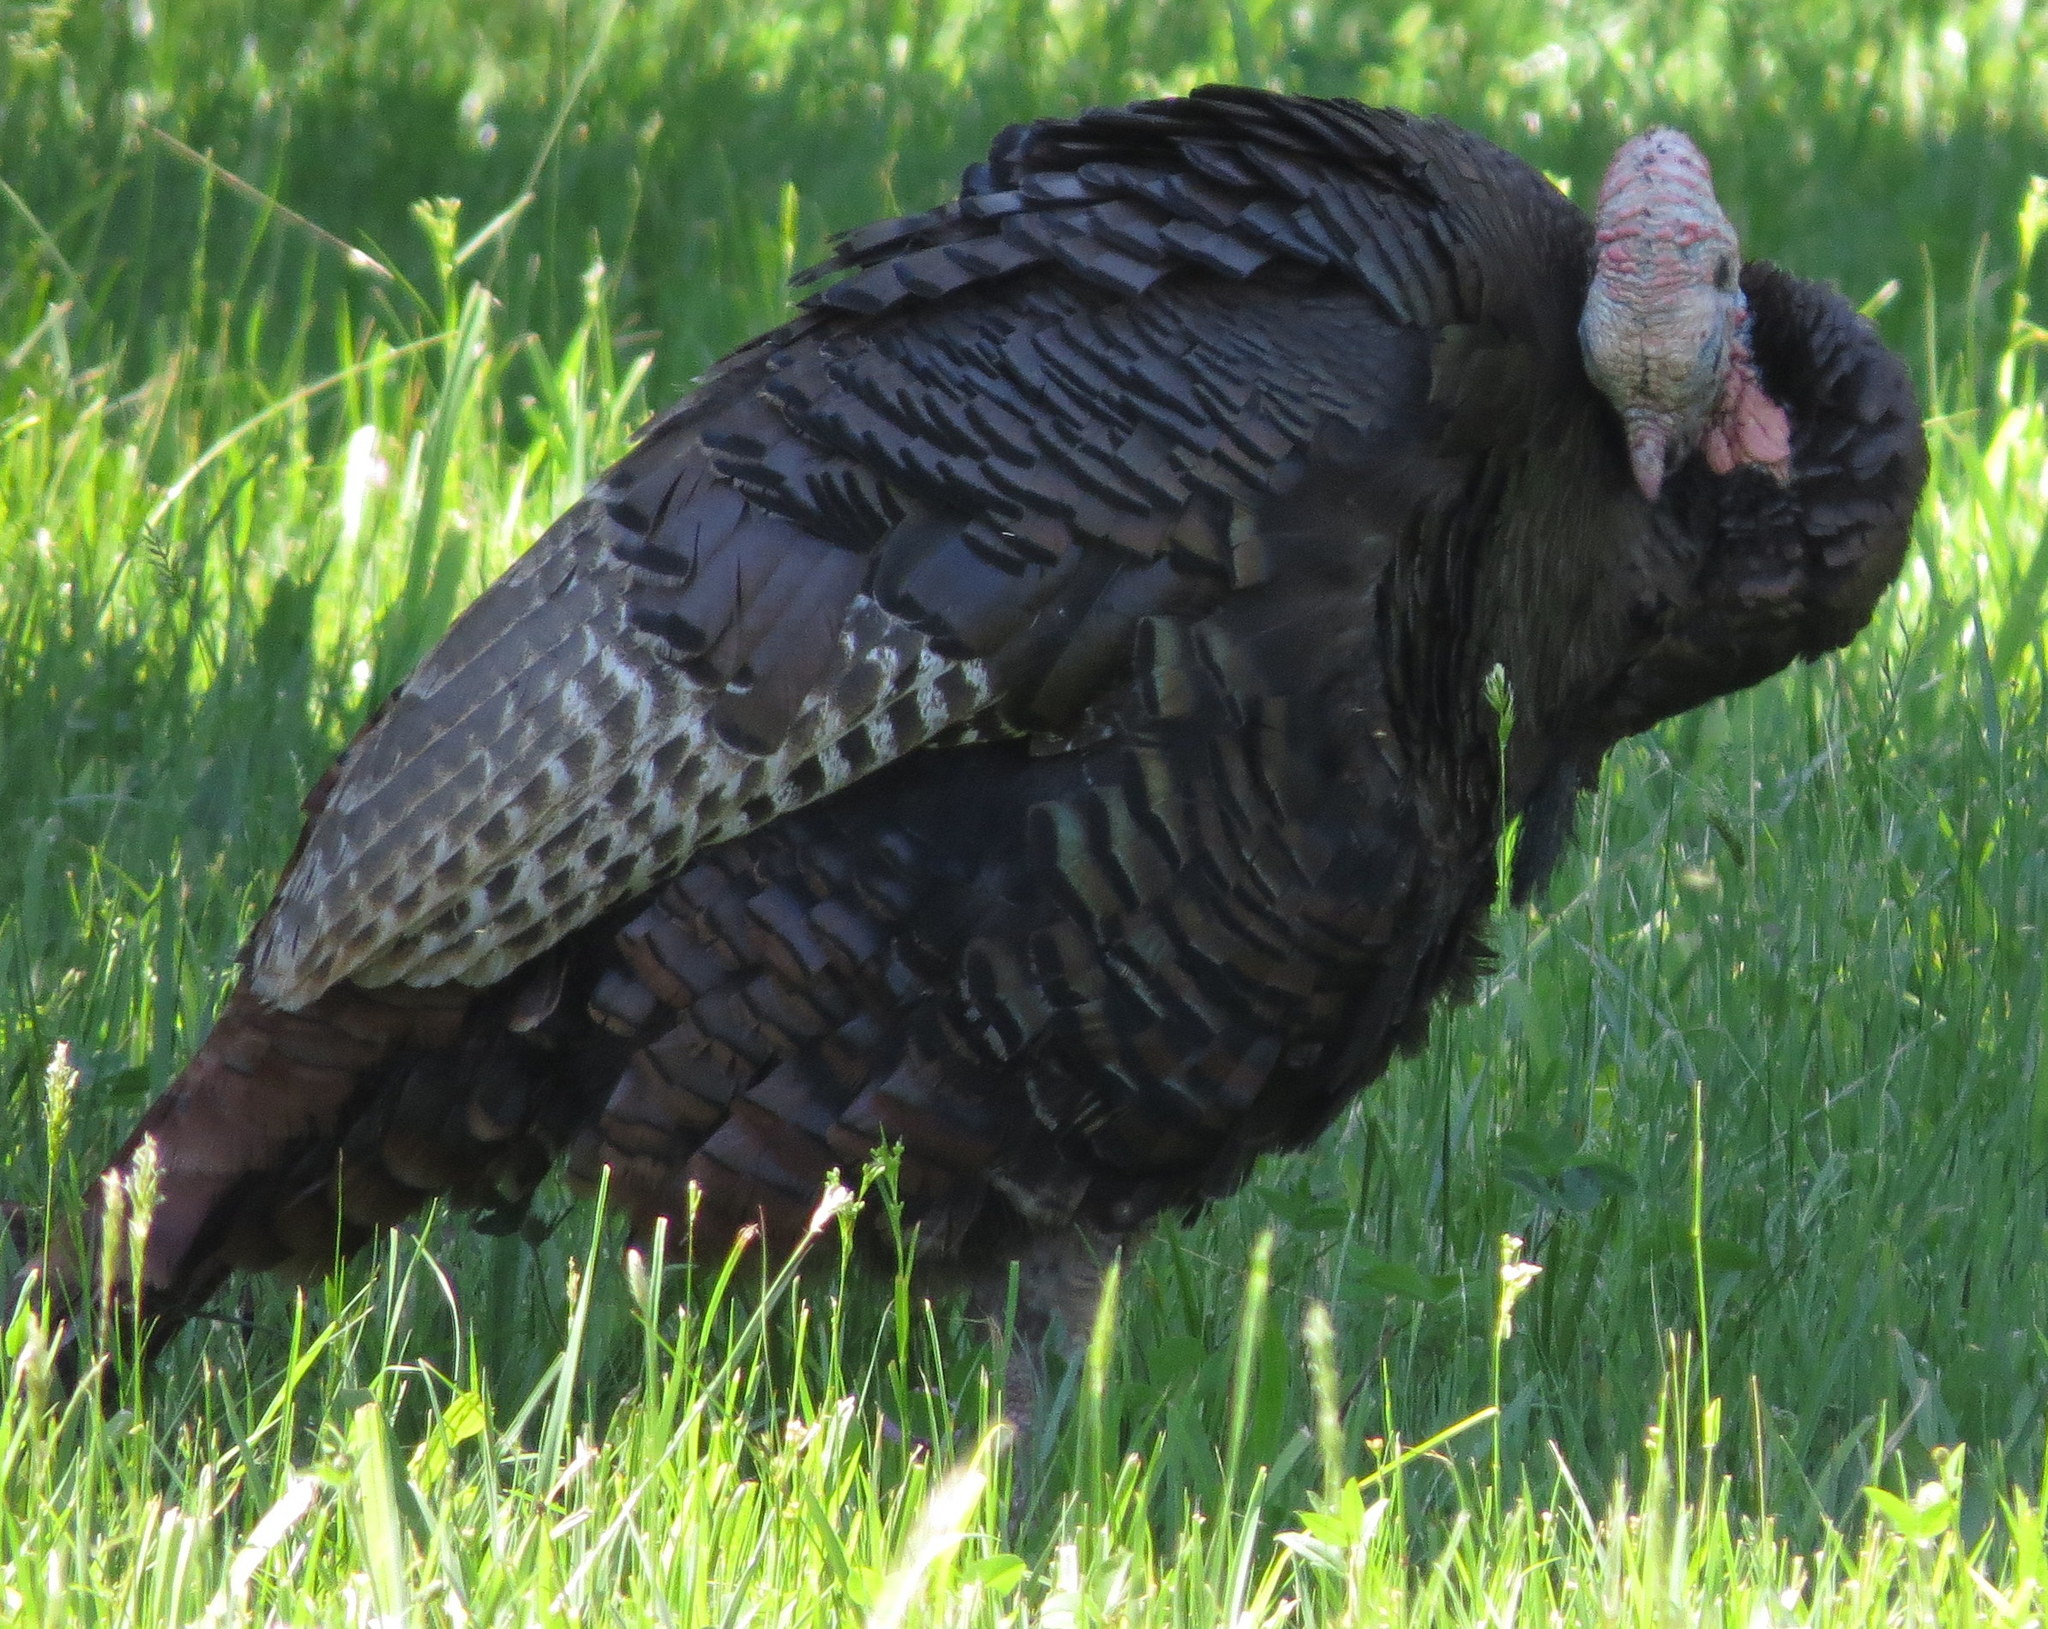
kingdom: Animalia
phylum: Chordata
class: Aves
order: Galliformes
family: Phasianidae
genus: Meleagris
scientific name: Meleagris gallopavo
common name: Wild turkey
